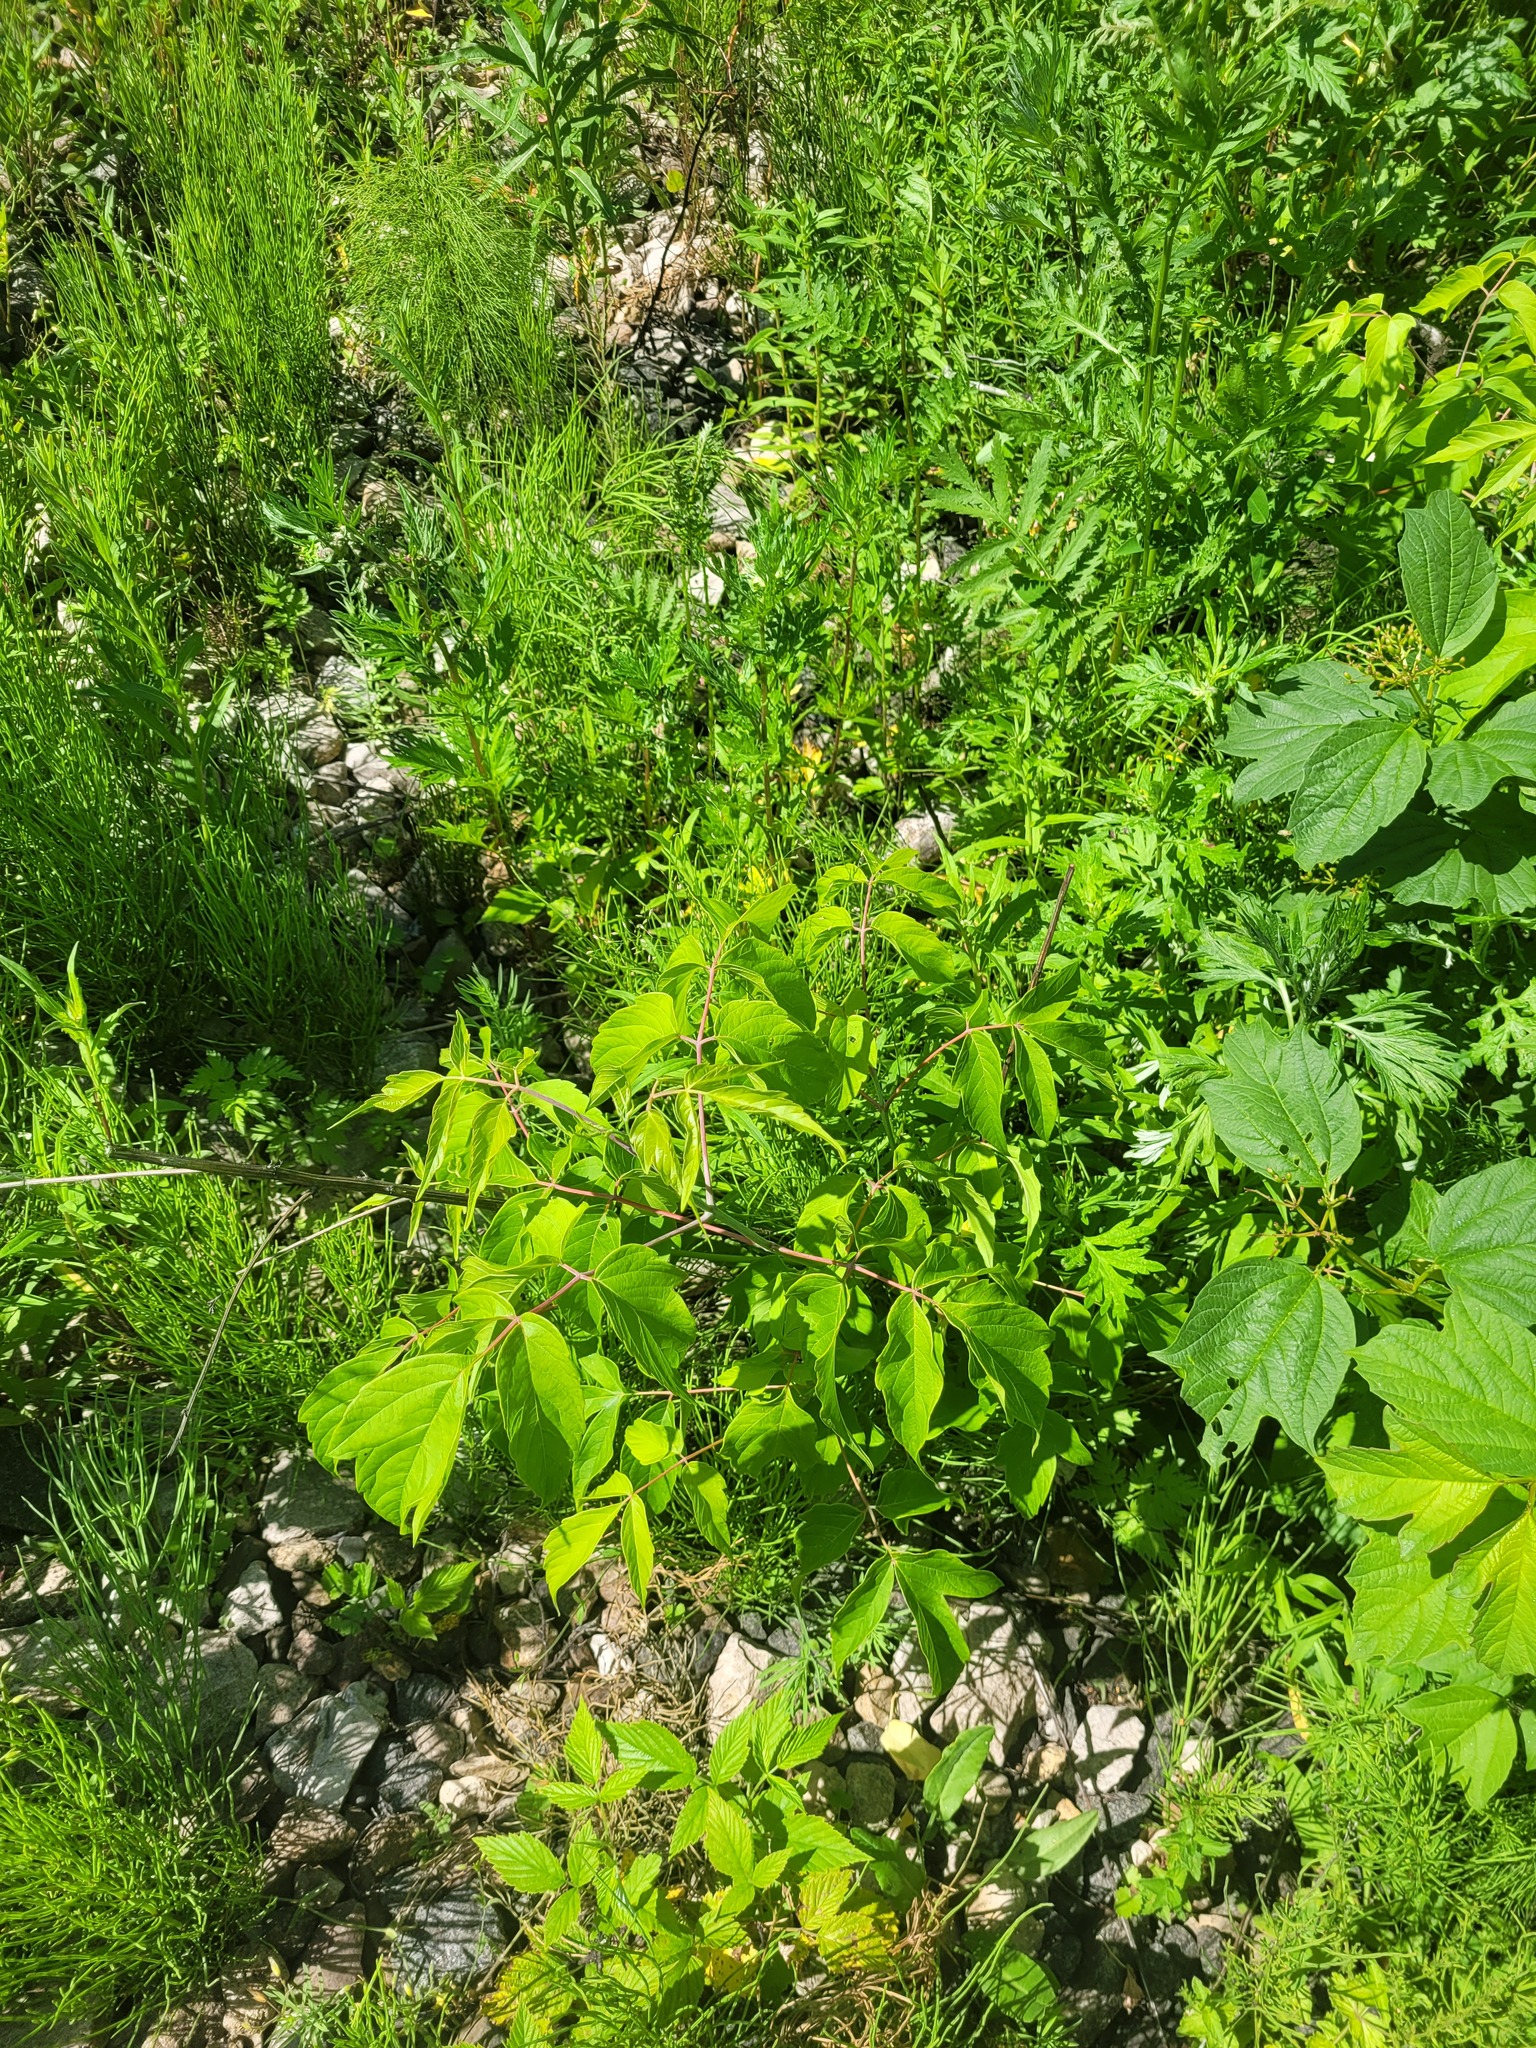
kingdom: Plantae
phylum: Tracheophyta
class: Magnoliopsida
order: Sapindales
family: Sapindaceae
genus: Acer
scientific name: Acer negundo
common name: Ashleaf maple
